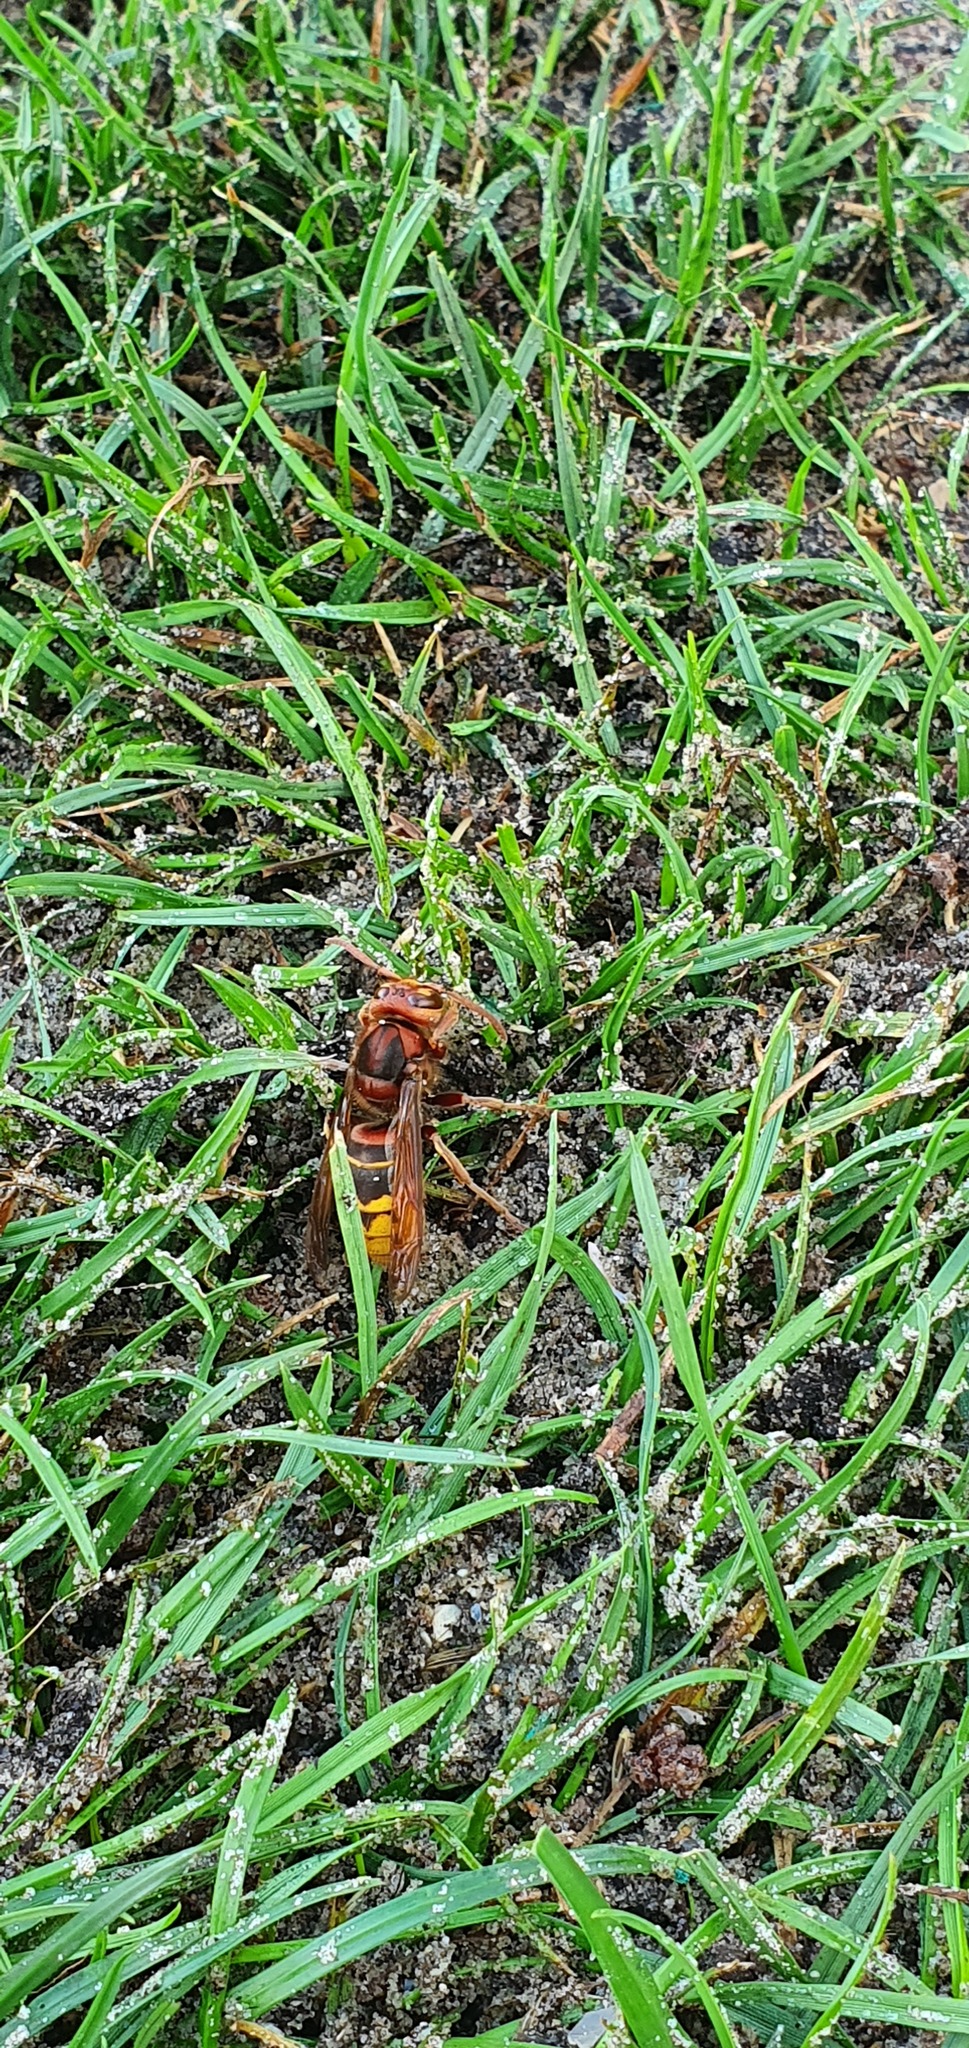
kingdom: Animalia
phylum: Arthropoda
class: Insecta
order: Hymenoptera
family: Vespidae
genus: Vespa
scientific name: Vespa crabro
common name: Hornet
